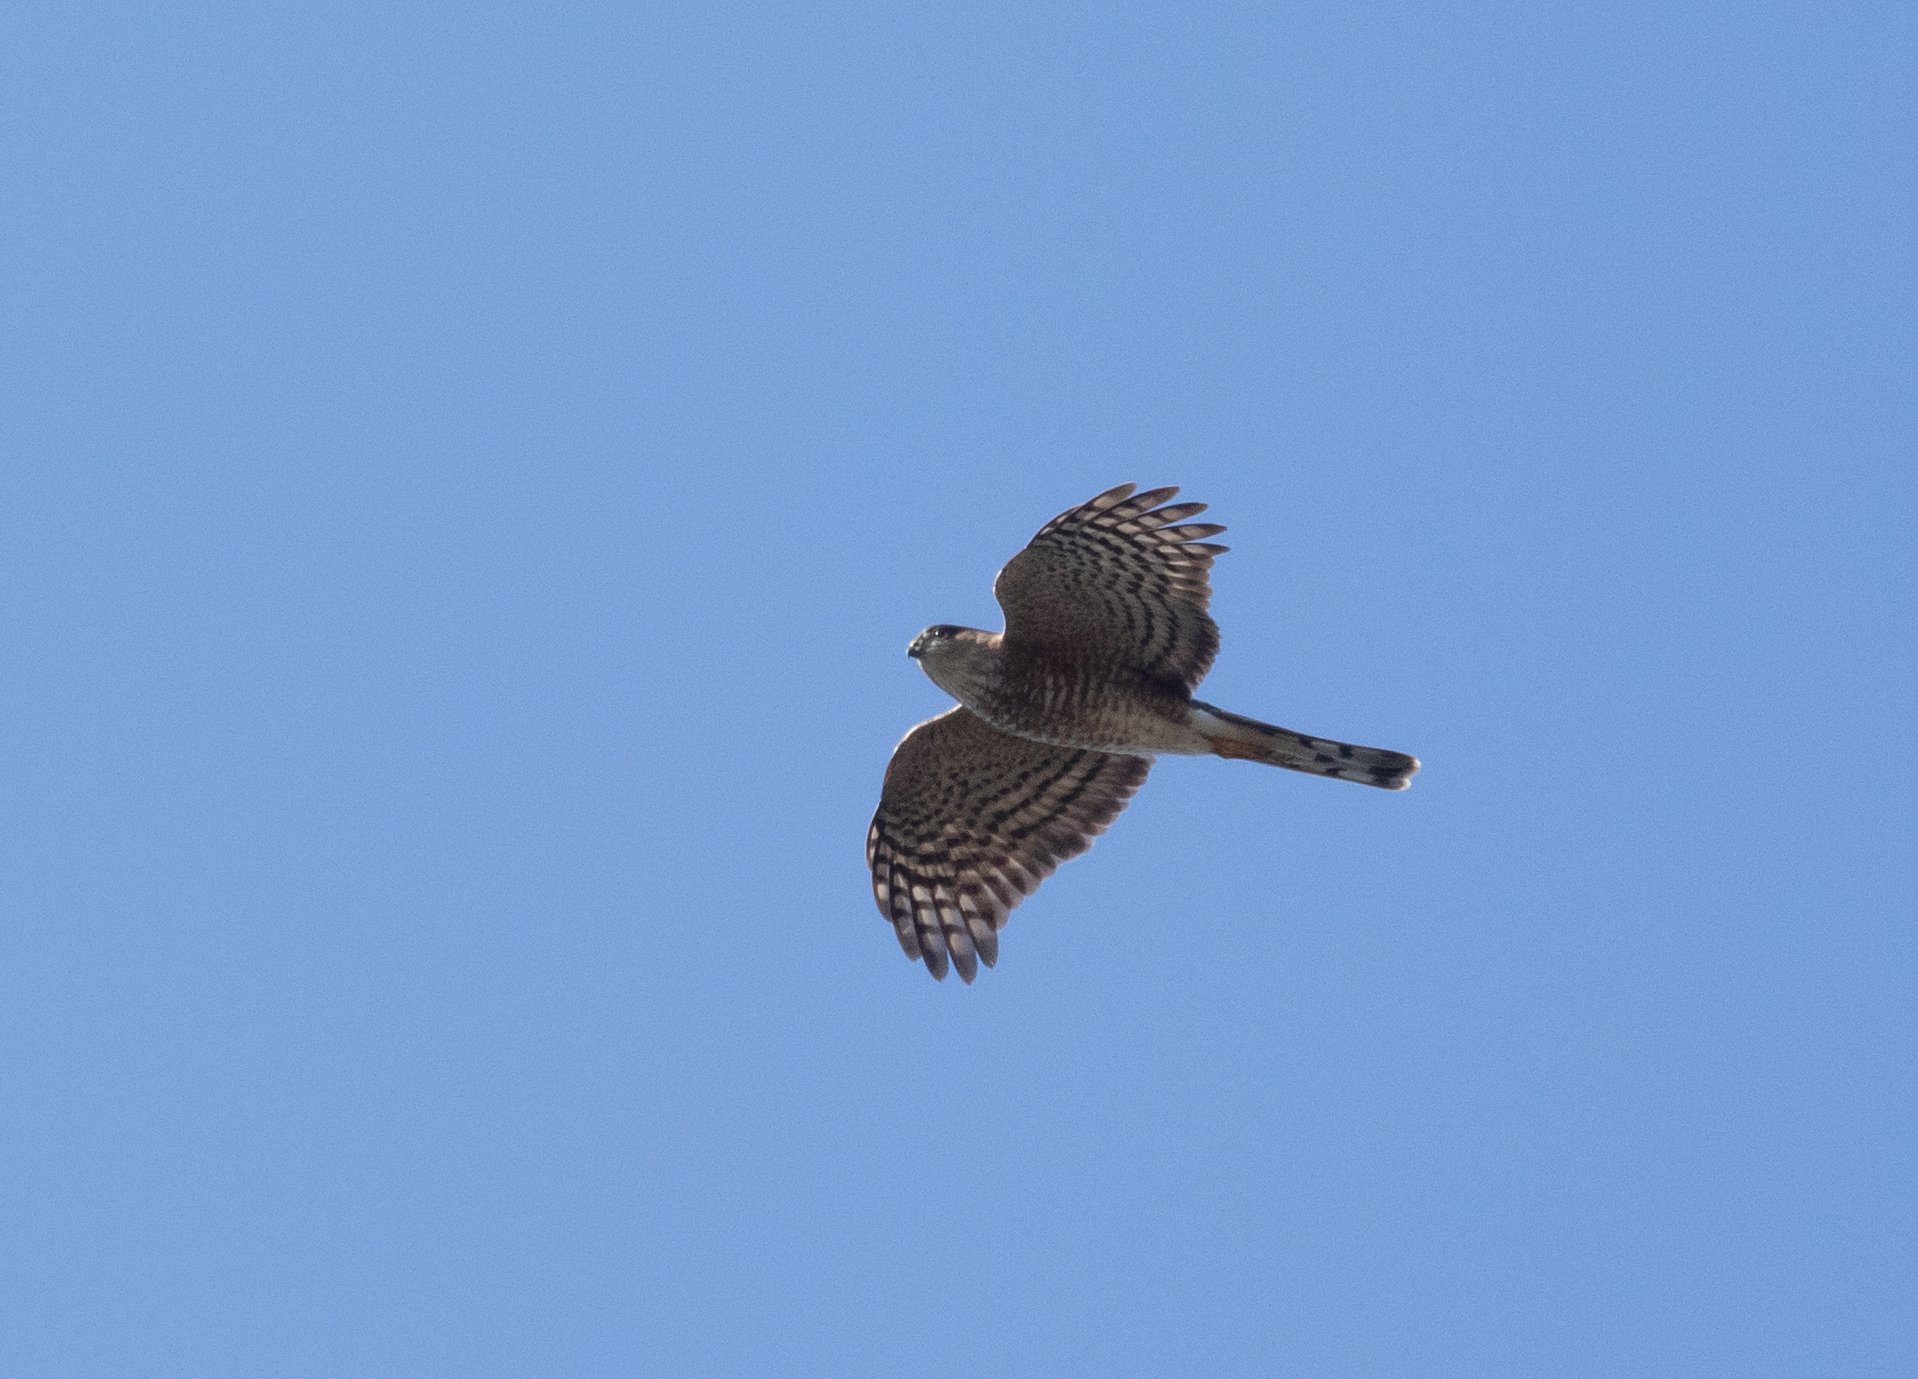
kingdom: Animalia
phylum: Chordata
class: Aves
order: Accipitriformes
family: Accipitridae
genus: Accipiter
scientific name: Accipiter striatus
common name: Sharp-shinned hawk
